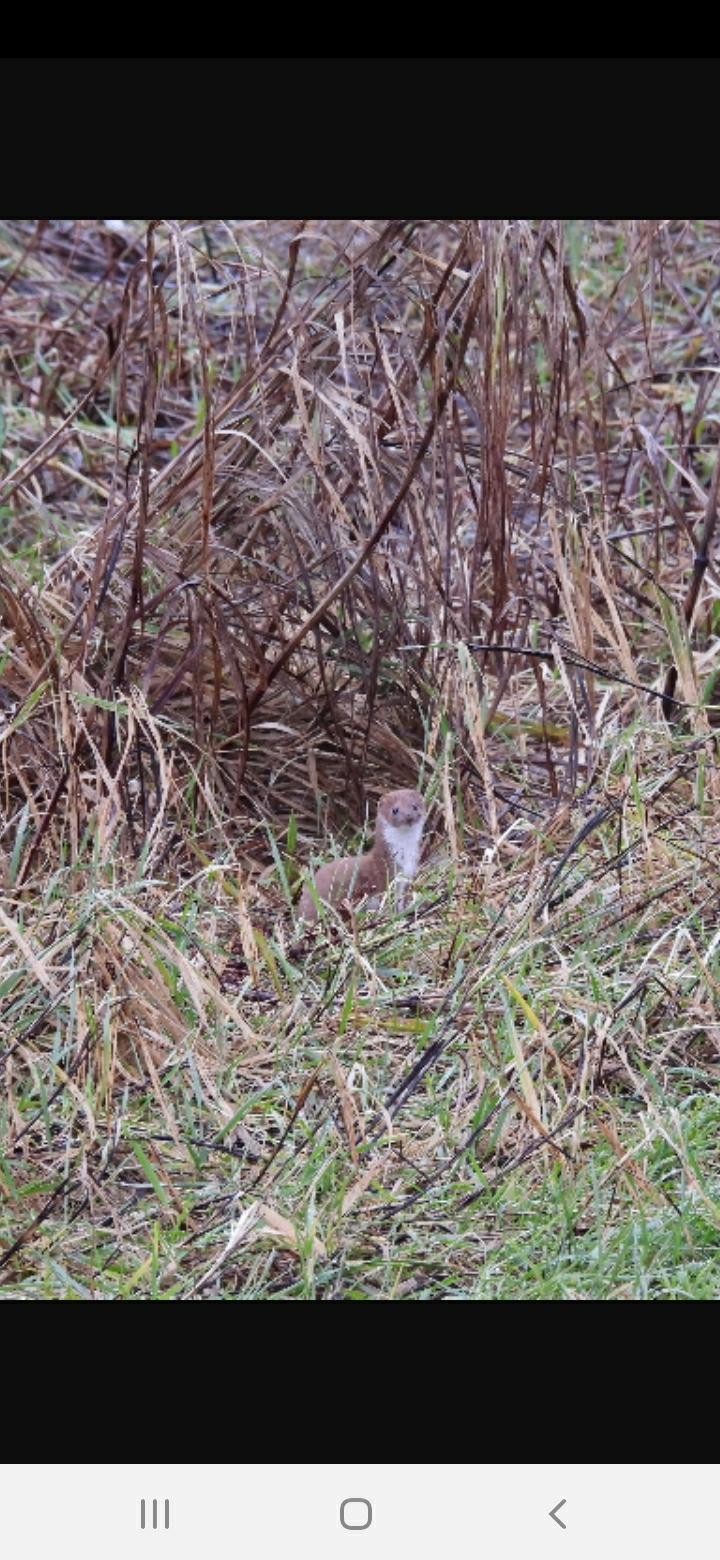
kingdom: Animalia
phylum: Chordata
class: Mammalia
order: Carnivora
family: Mustelidae
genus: Mustela
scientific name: Mustela nivalis
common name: Least weasel
